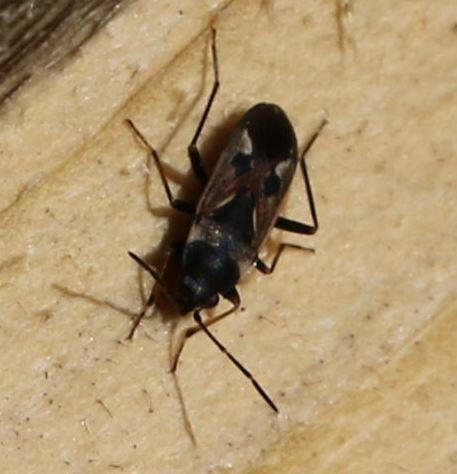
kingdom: Animalia
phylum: Arthropoda
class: Insecta
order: Hemiptera
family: Rhyparochromidae
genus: Rhyparochromus
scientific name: Rhyparochromus vulgaris
